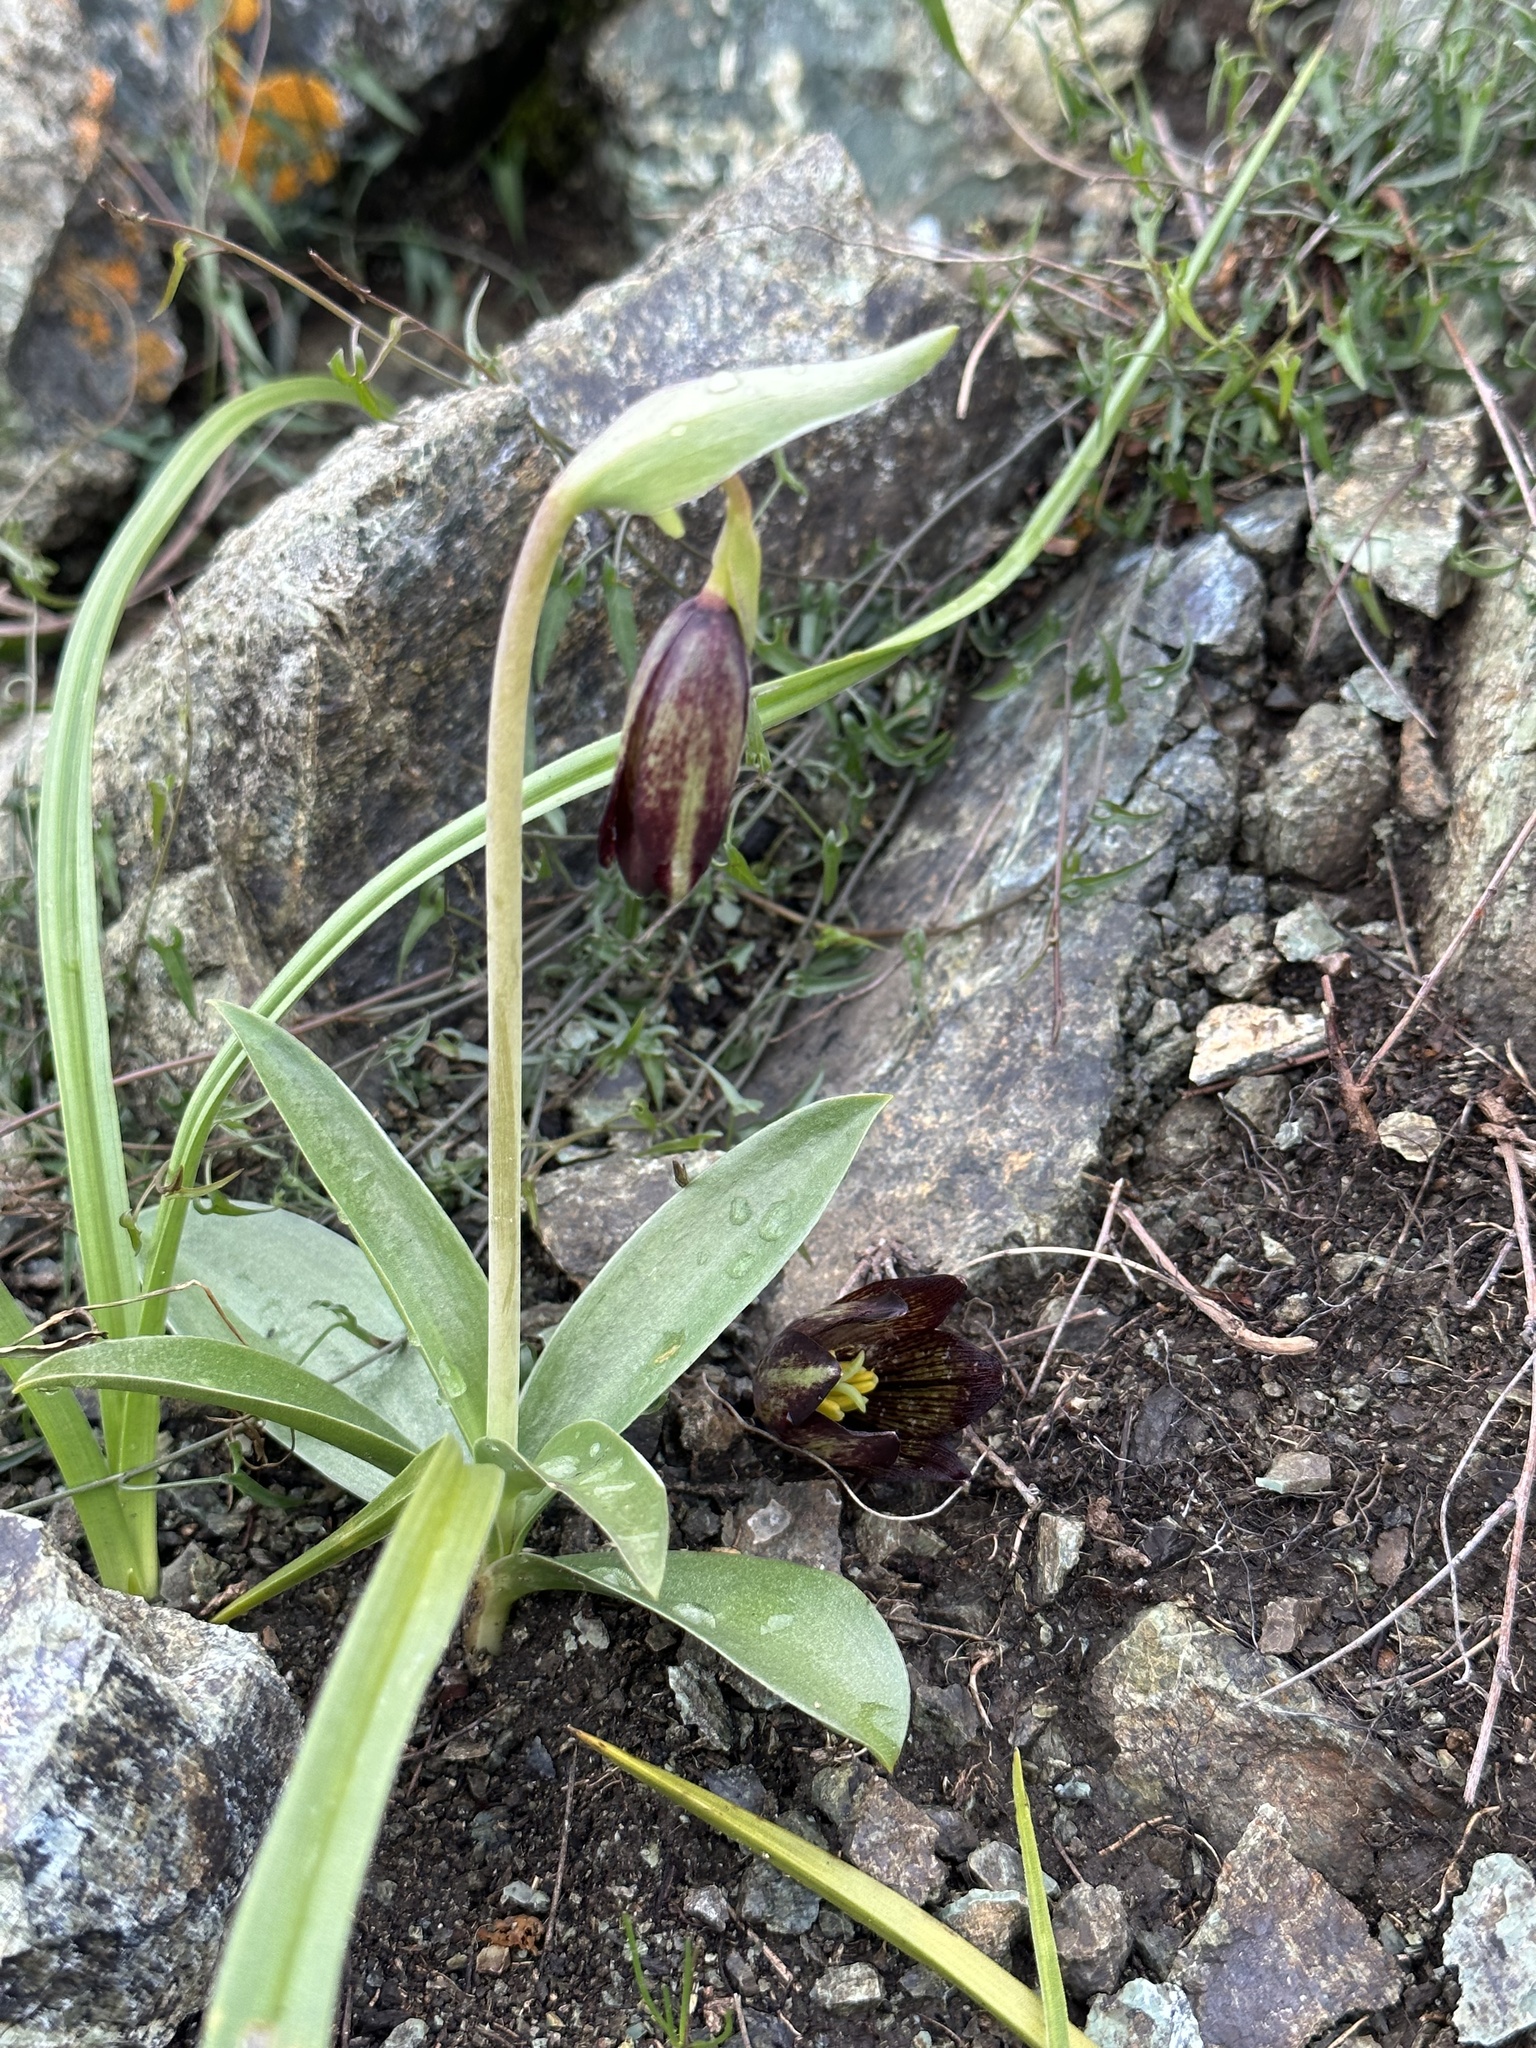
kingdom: Plantae
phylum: Tracheophyta
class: Liliopsida
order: Liliales
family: Liliaceae
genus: Fritillaria
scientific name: Fritillaria biflora
